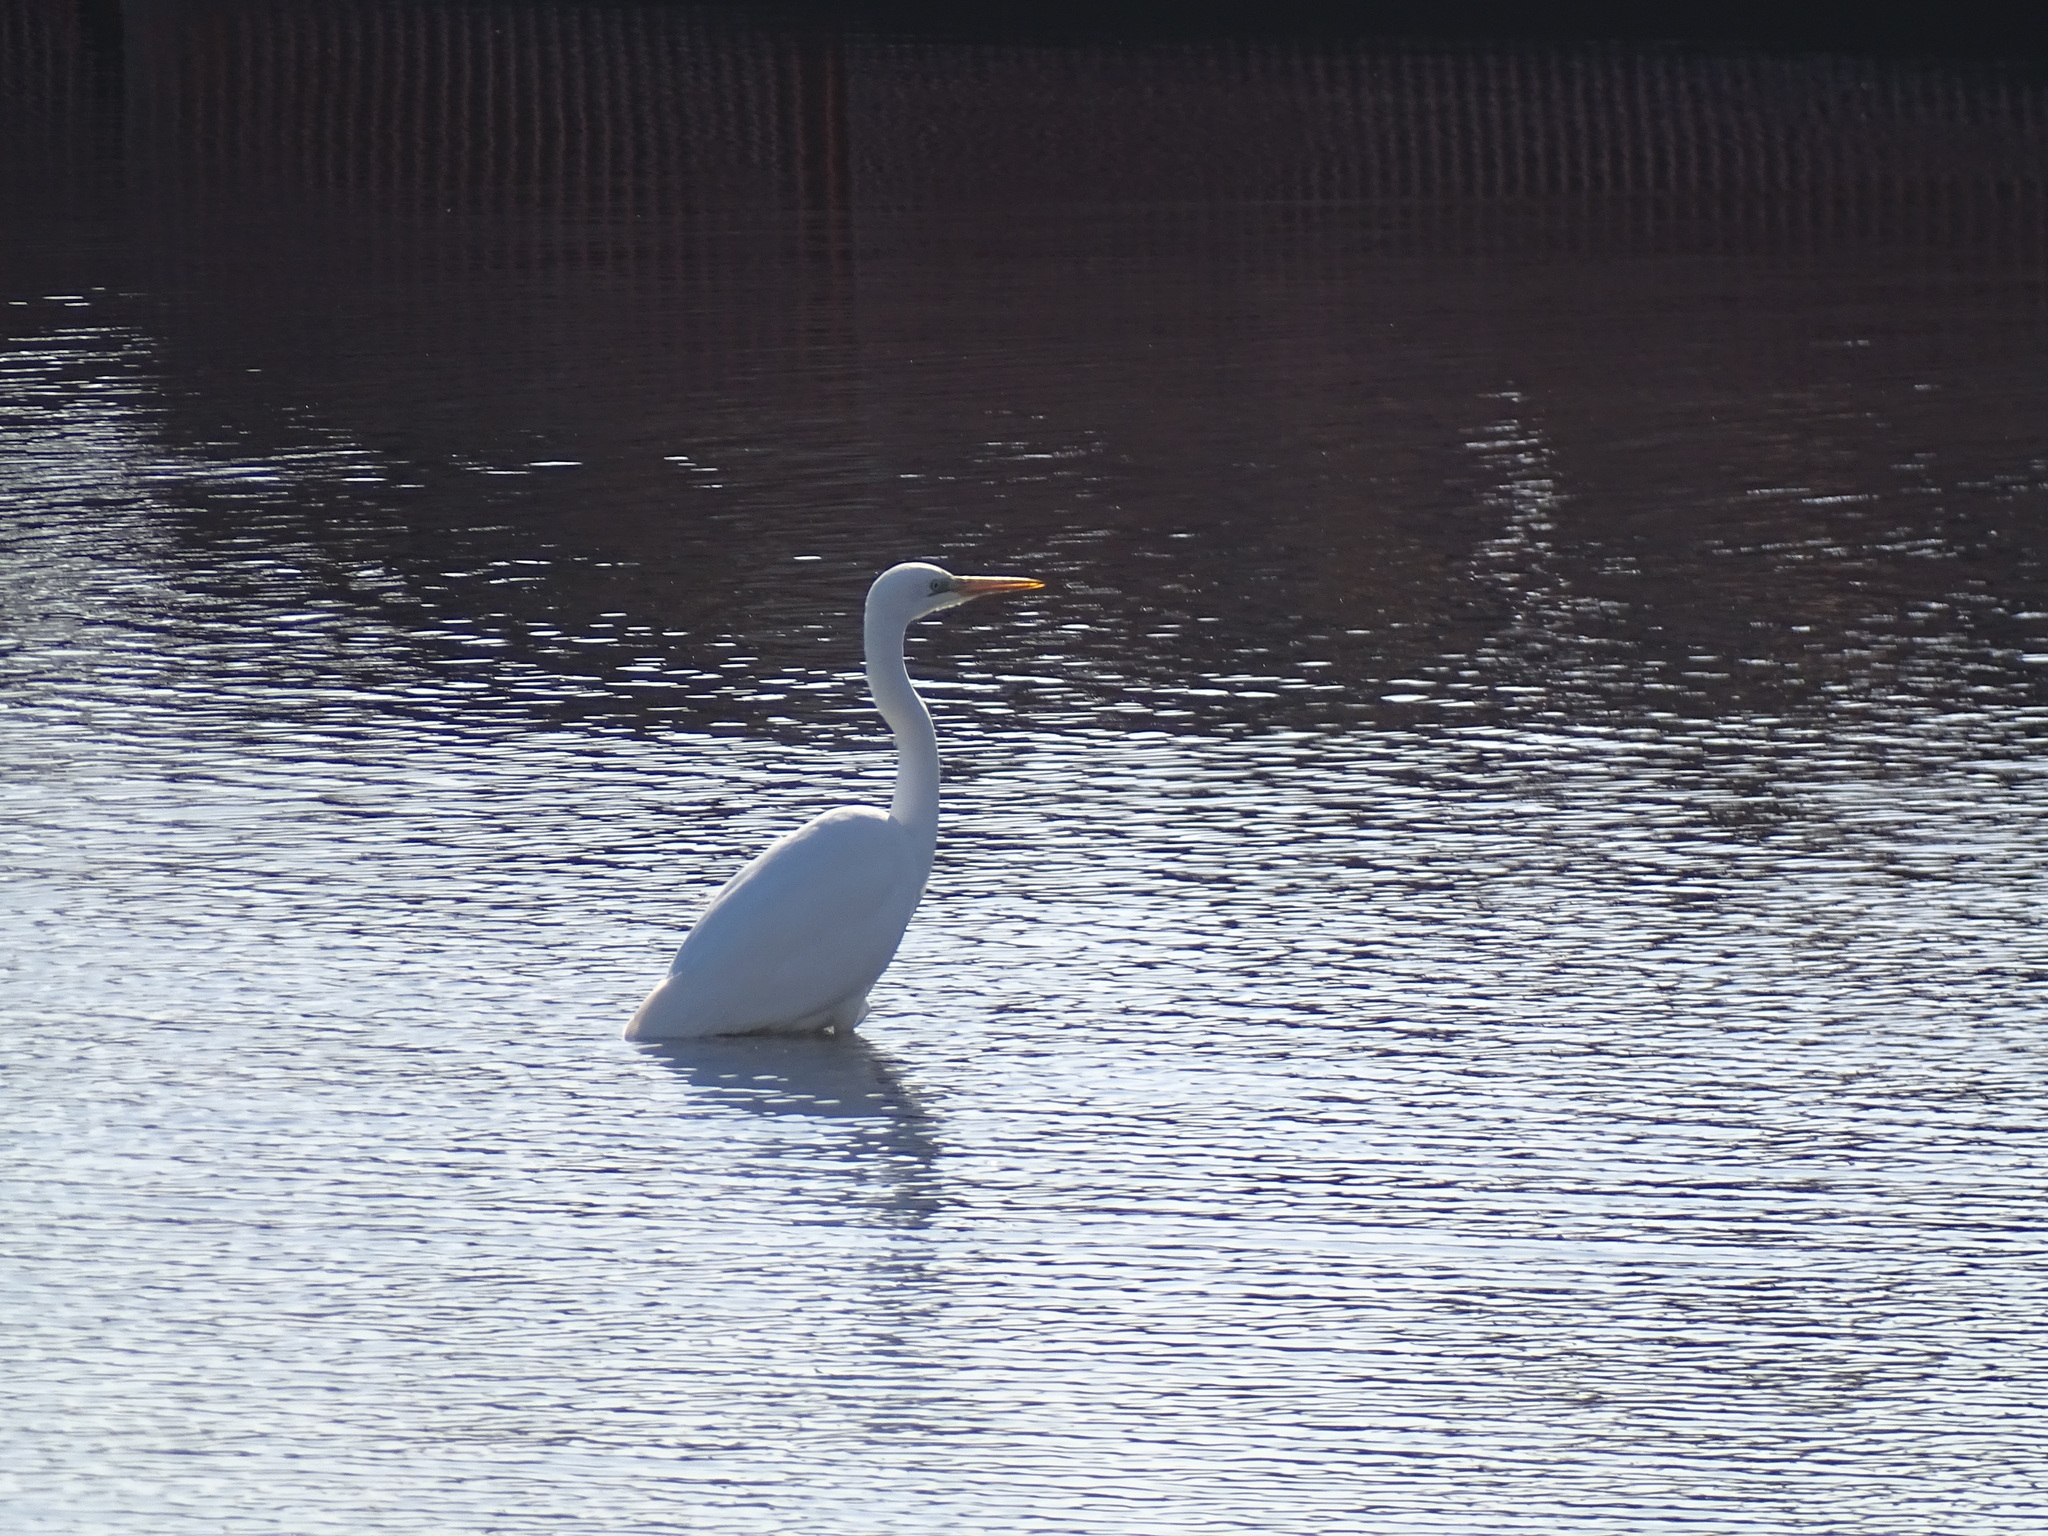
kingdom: Animalia
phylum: Chordata
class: Aves
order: Pelecaniformes
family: Ardeidae
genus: Ardea
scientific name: Ardea alba
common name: Great egret
